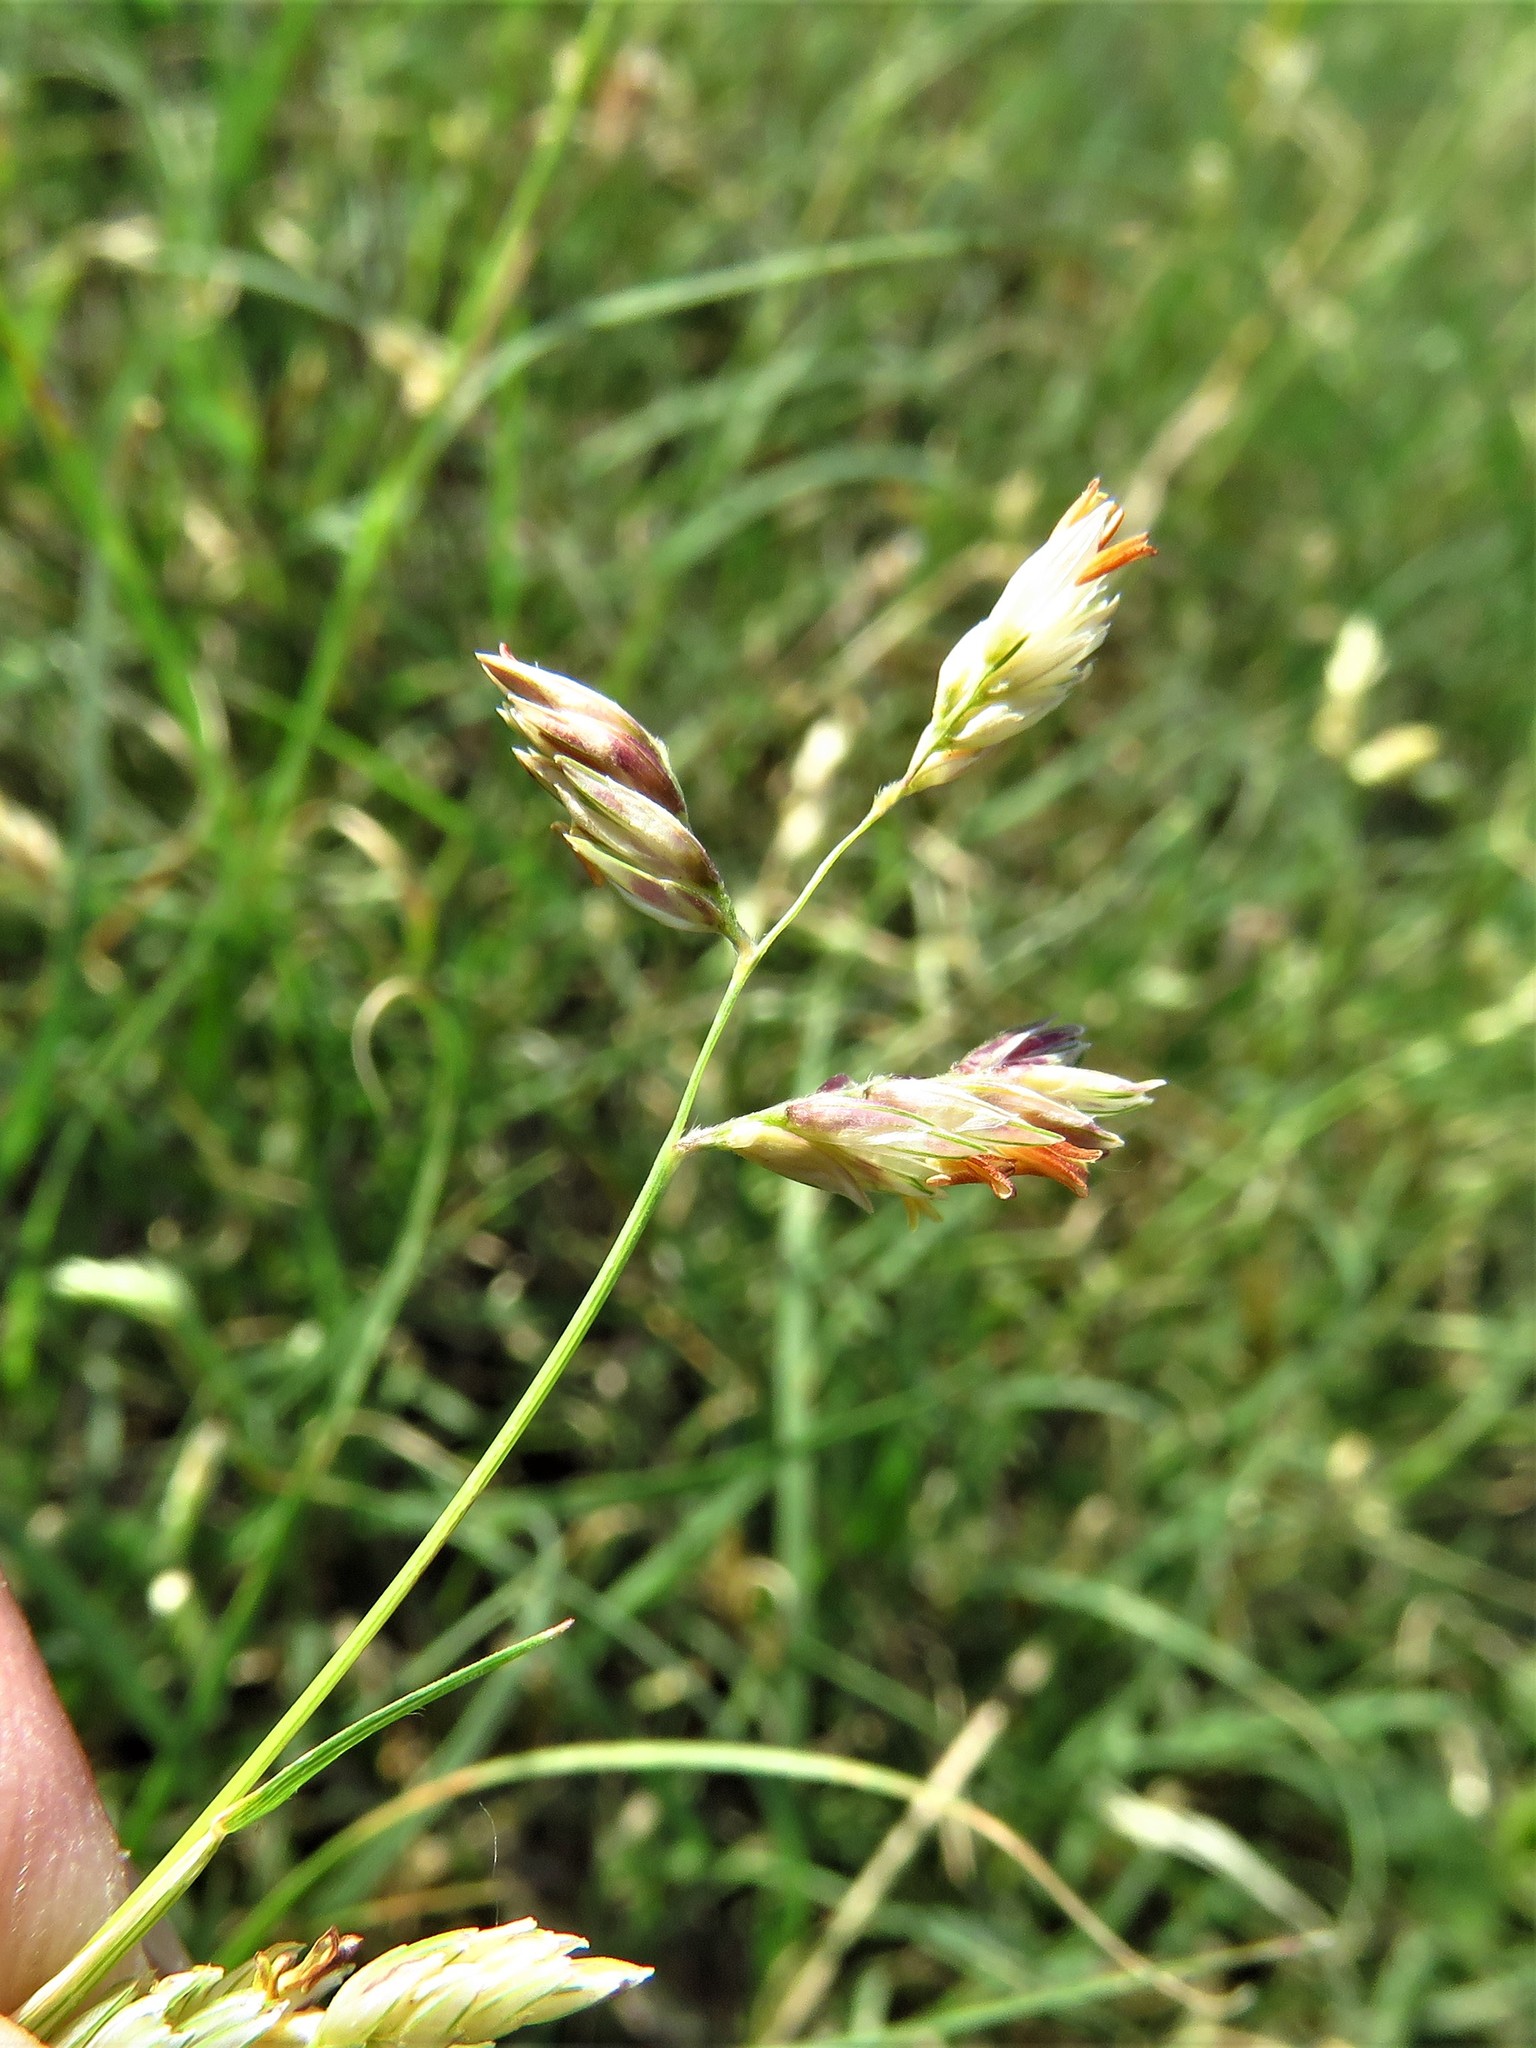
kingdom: Plantae
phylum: Tracheophyta
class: Liliopsida
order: Poales
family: Poaceae
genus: Bouteloua
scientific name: Bouteloua dactyloides
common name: Buffalo grass
